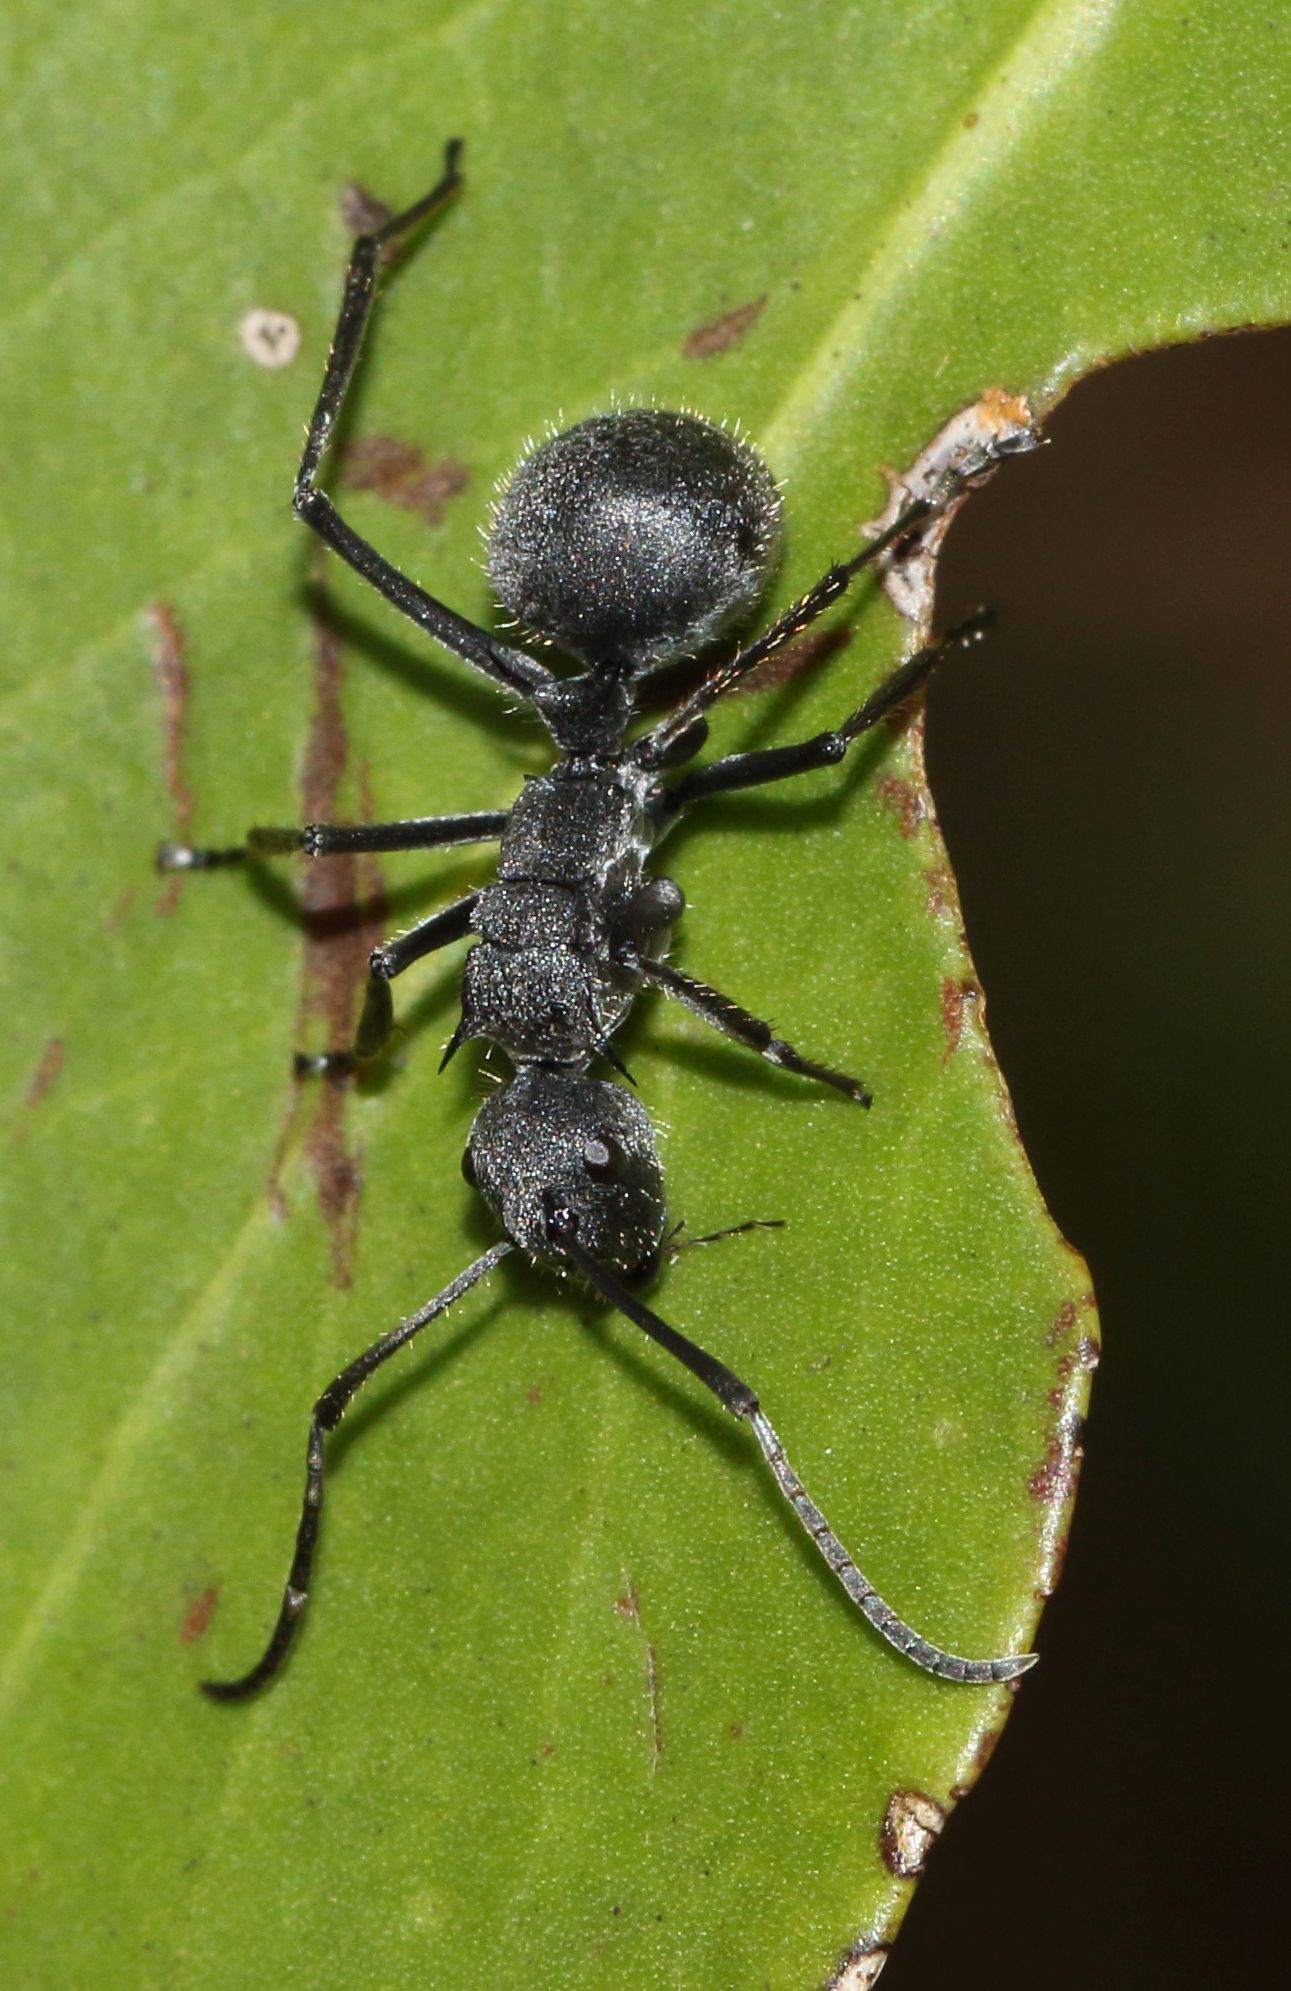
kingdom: Animalia
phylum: Arthropoda
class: Insecta
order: Hymenoptera
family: Formicidae
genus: Polyrhachis
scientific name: Polyrhachis schistacea
